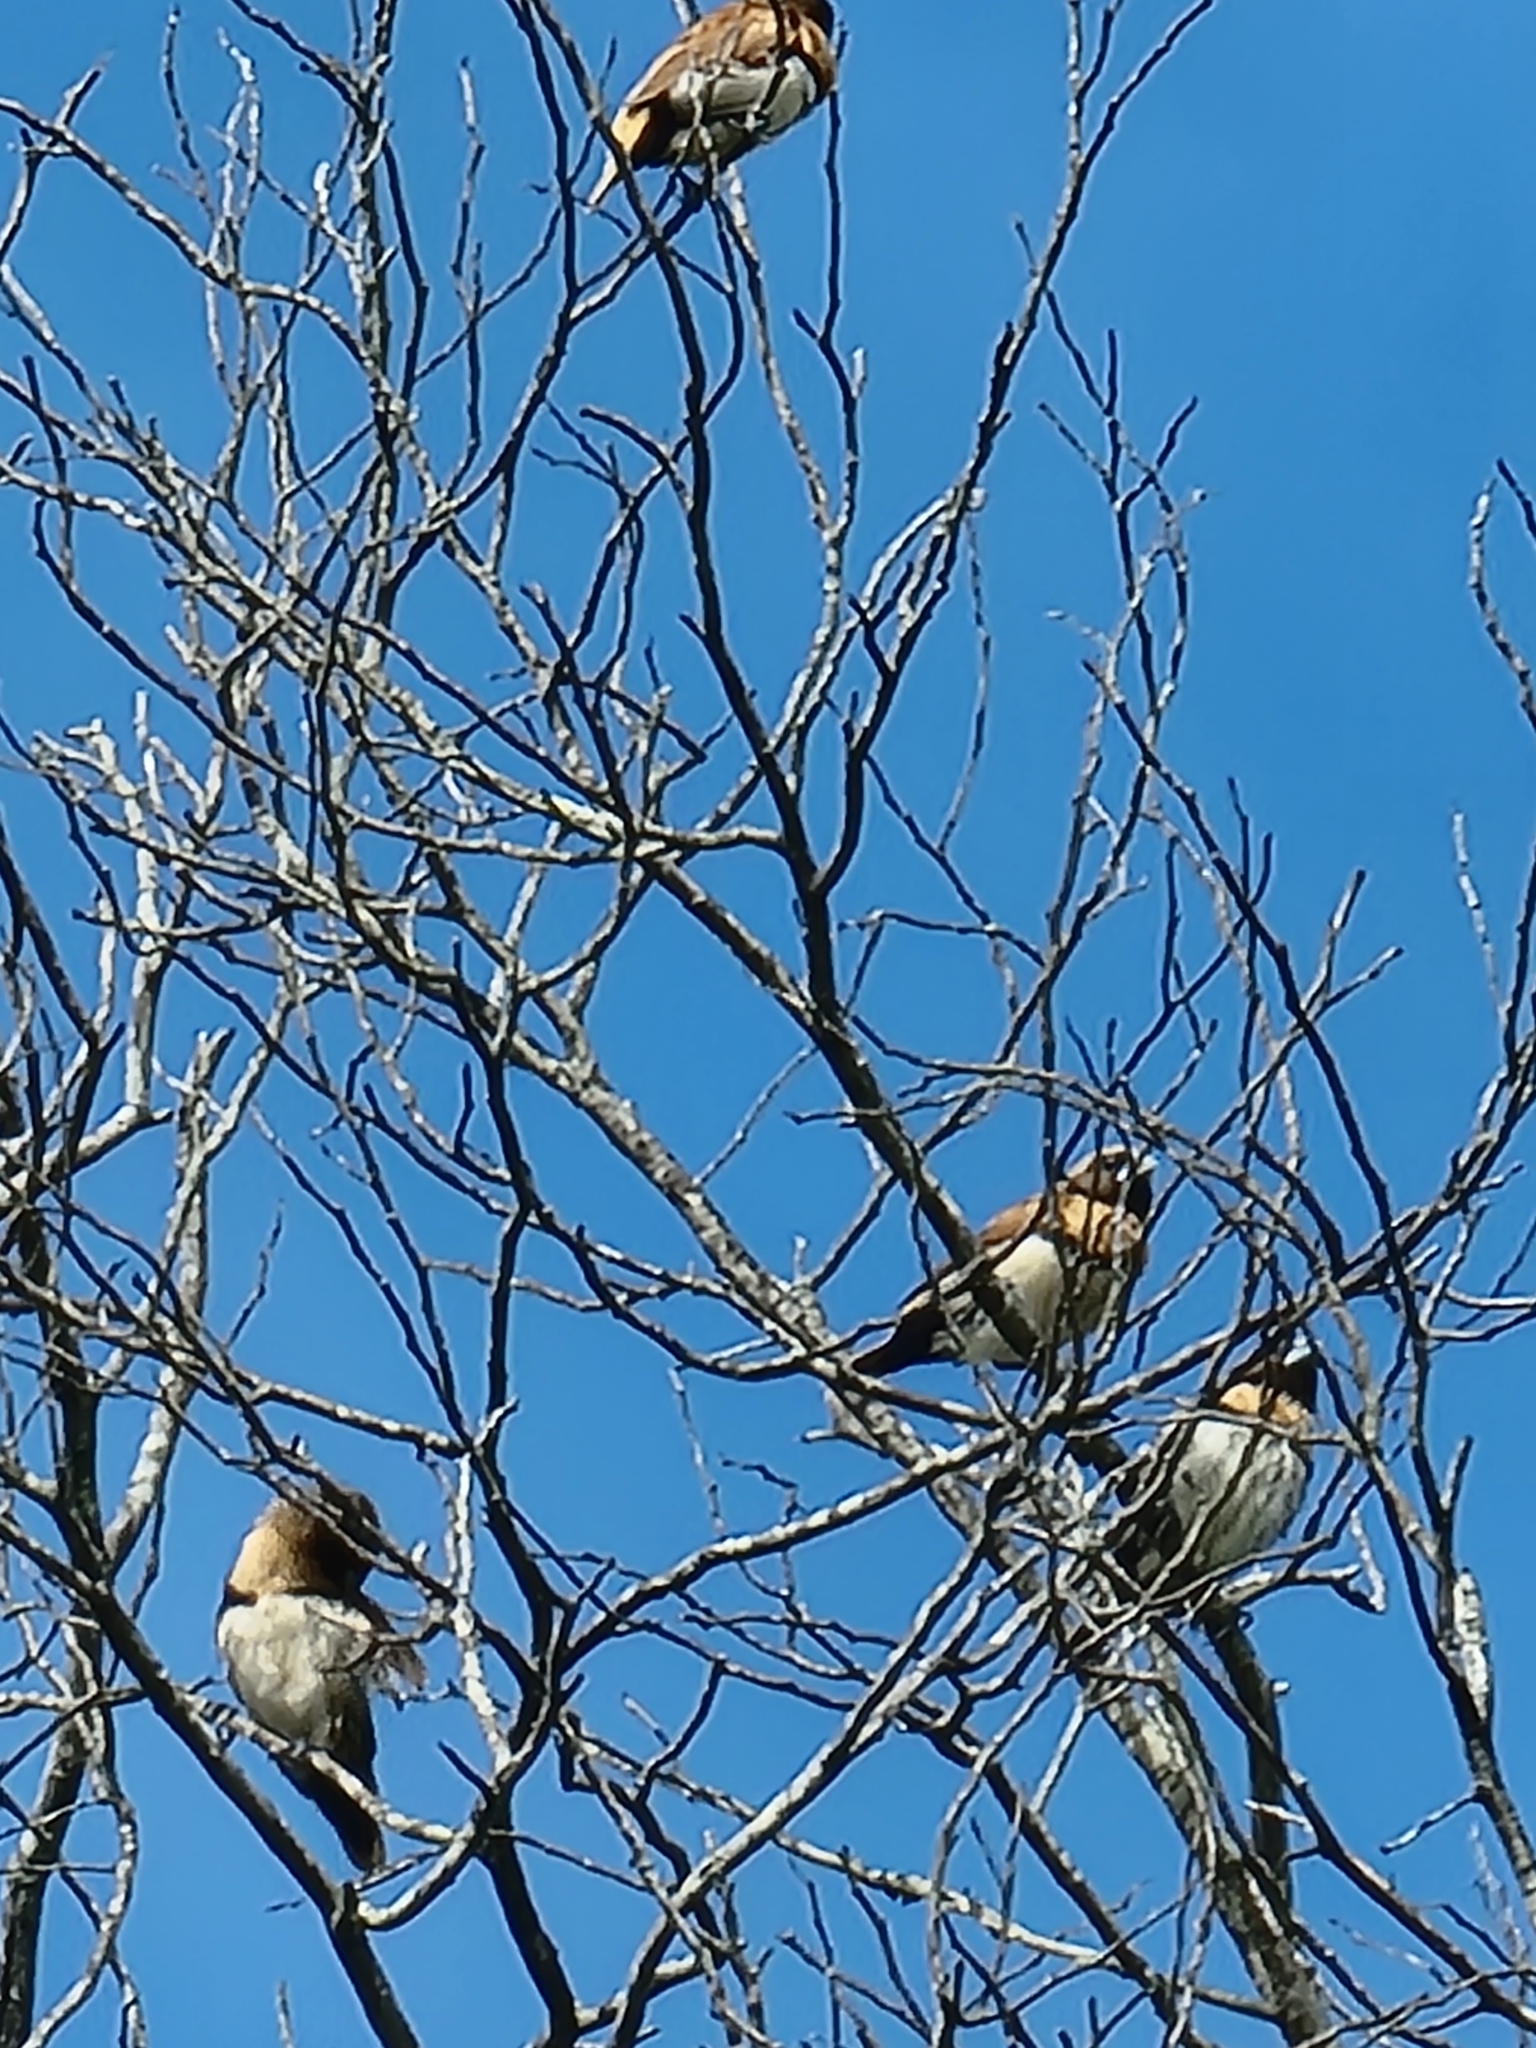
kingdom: Animalia
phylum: Chordata
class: Aves
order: Passeriformes
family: Estrildidae
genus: Lonchura
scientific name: Lonchura castaneothorax
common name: Chestnut-breasted mannikin
